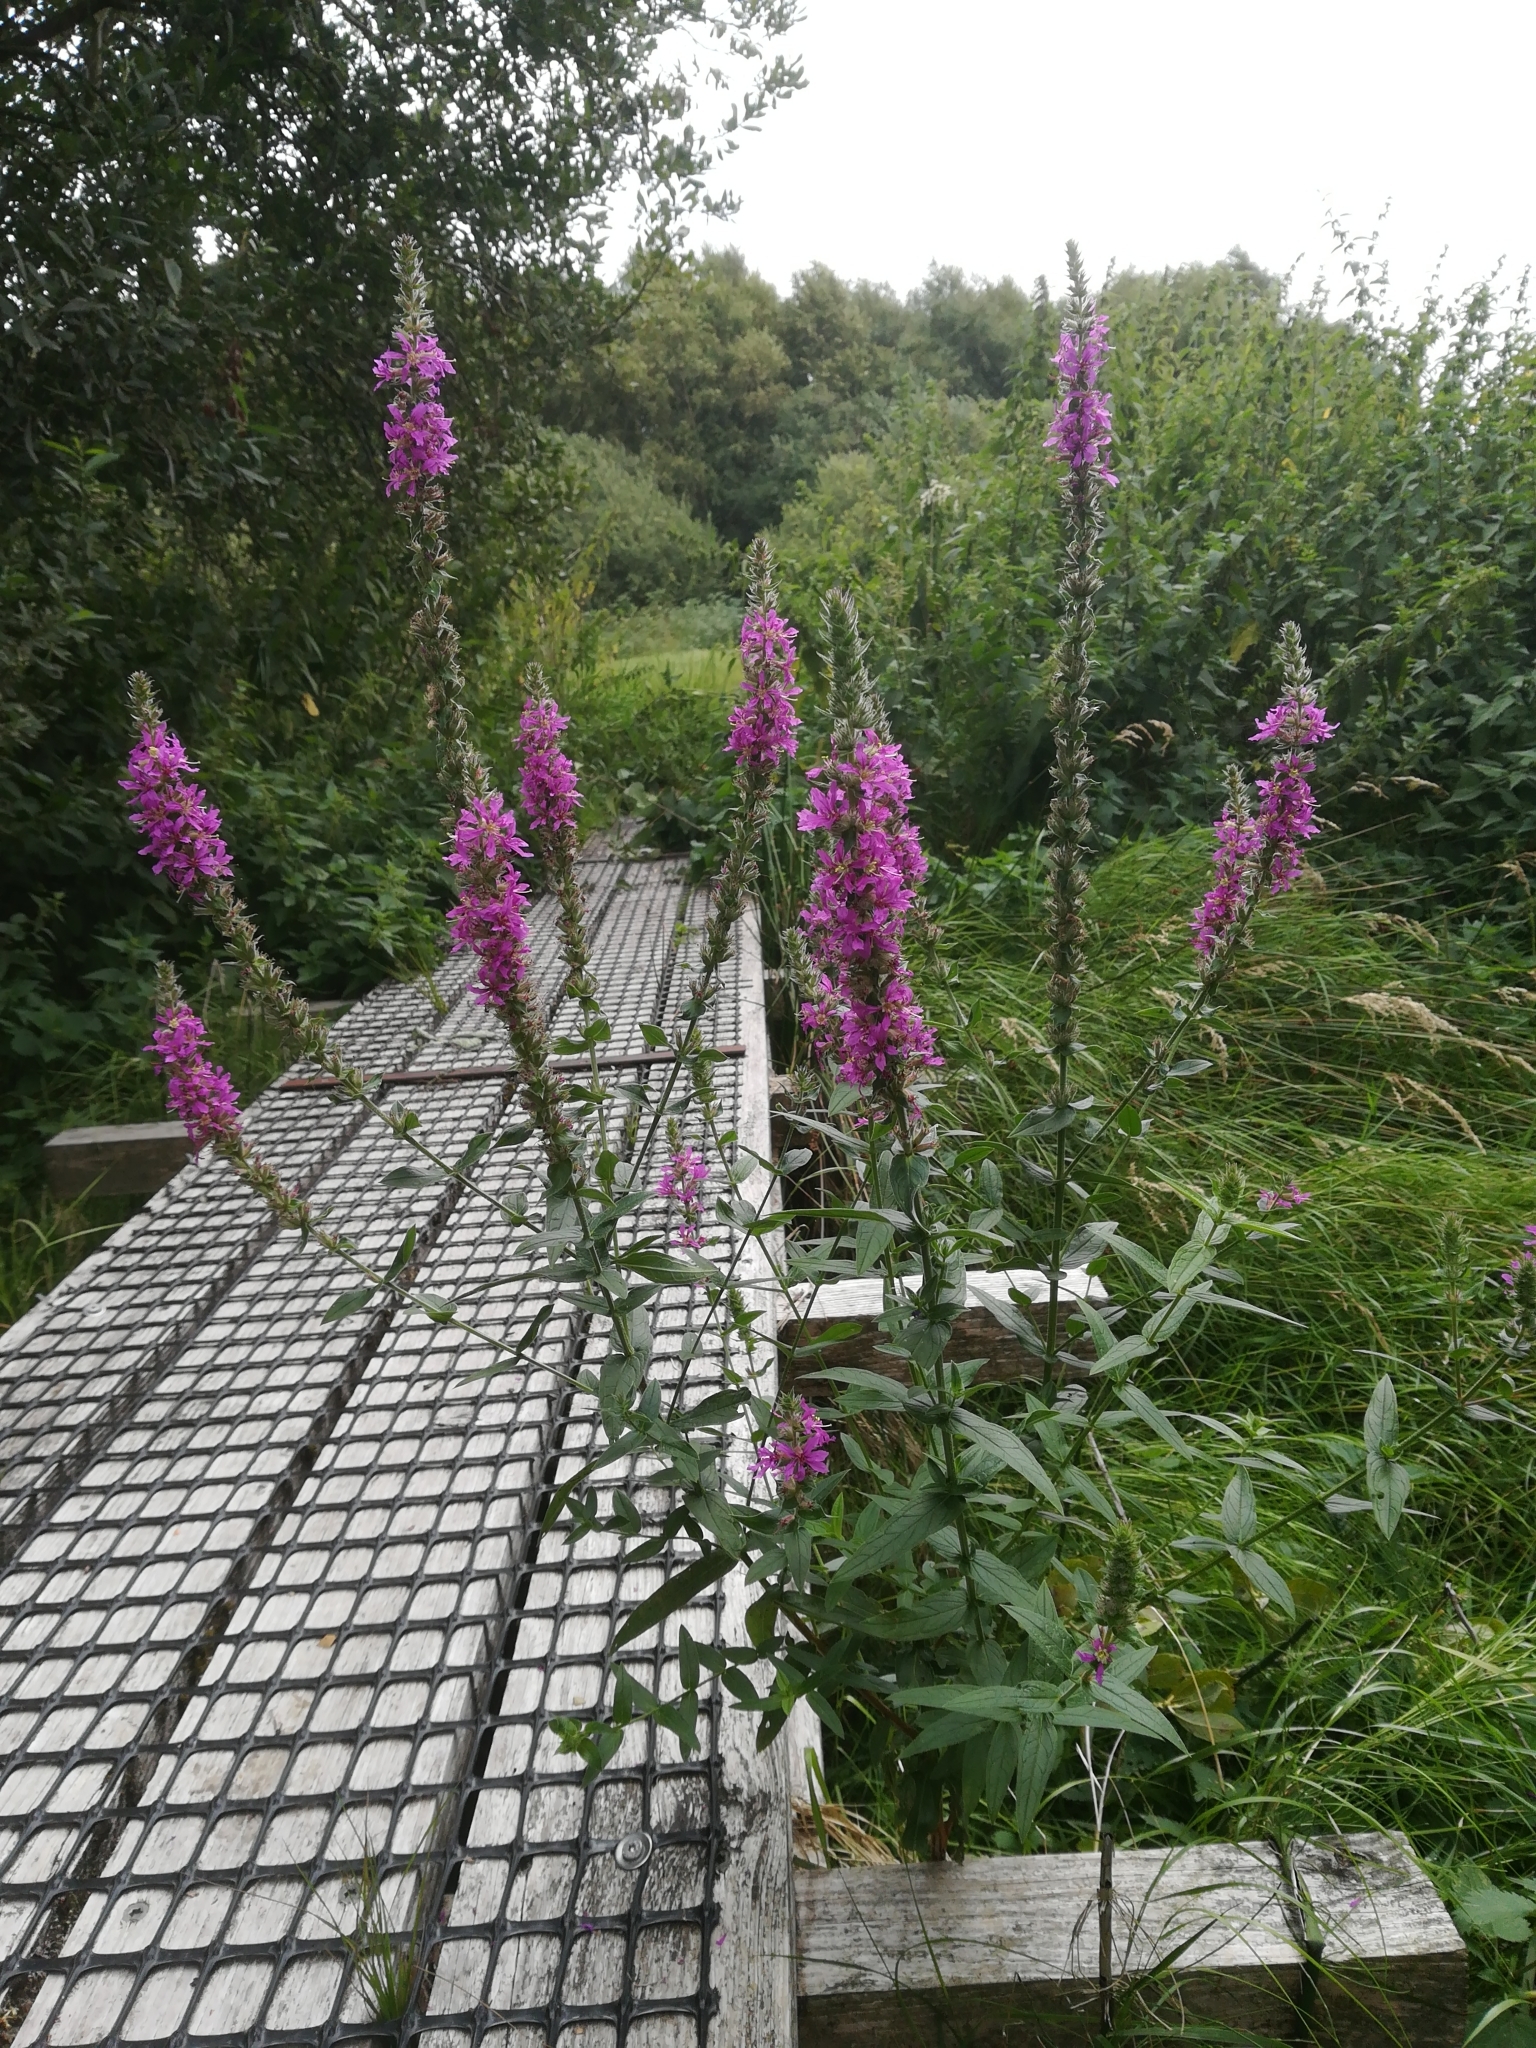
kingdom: Plantae
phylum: Tracheophyta
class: Magnoliopsida
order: Myrtales
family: Lythraceae
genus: Lythrum
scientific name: Lythrum salicaria
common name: Purple loosestrife
